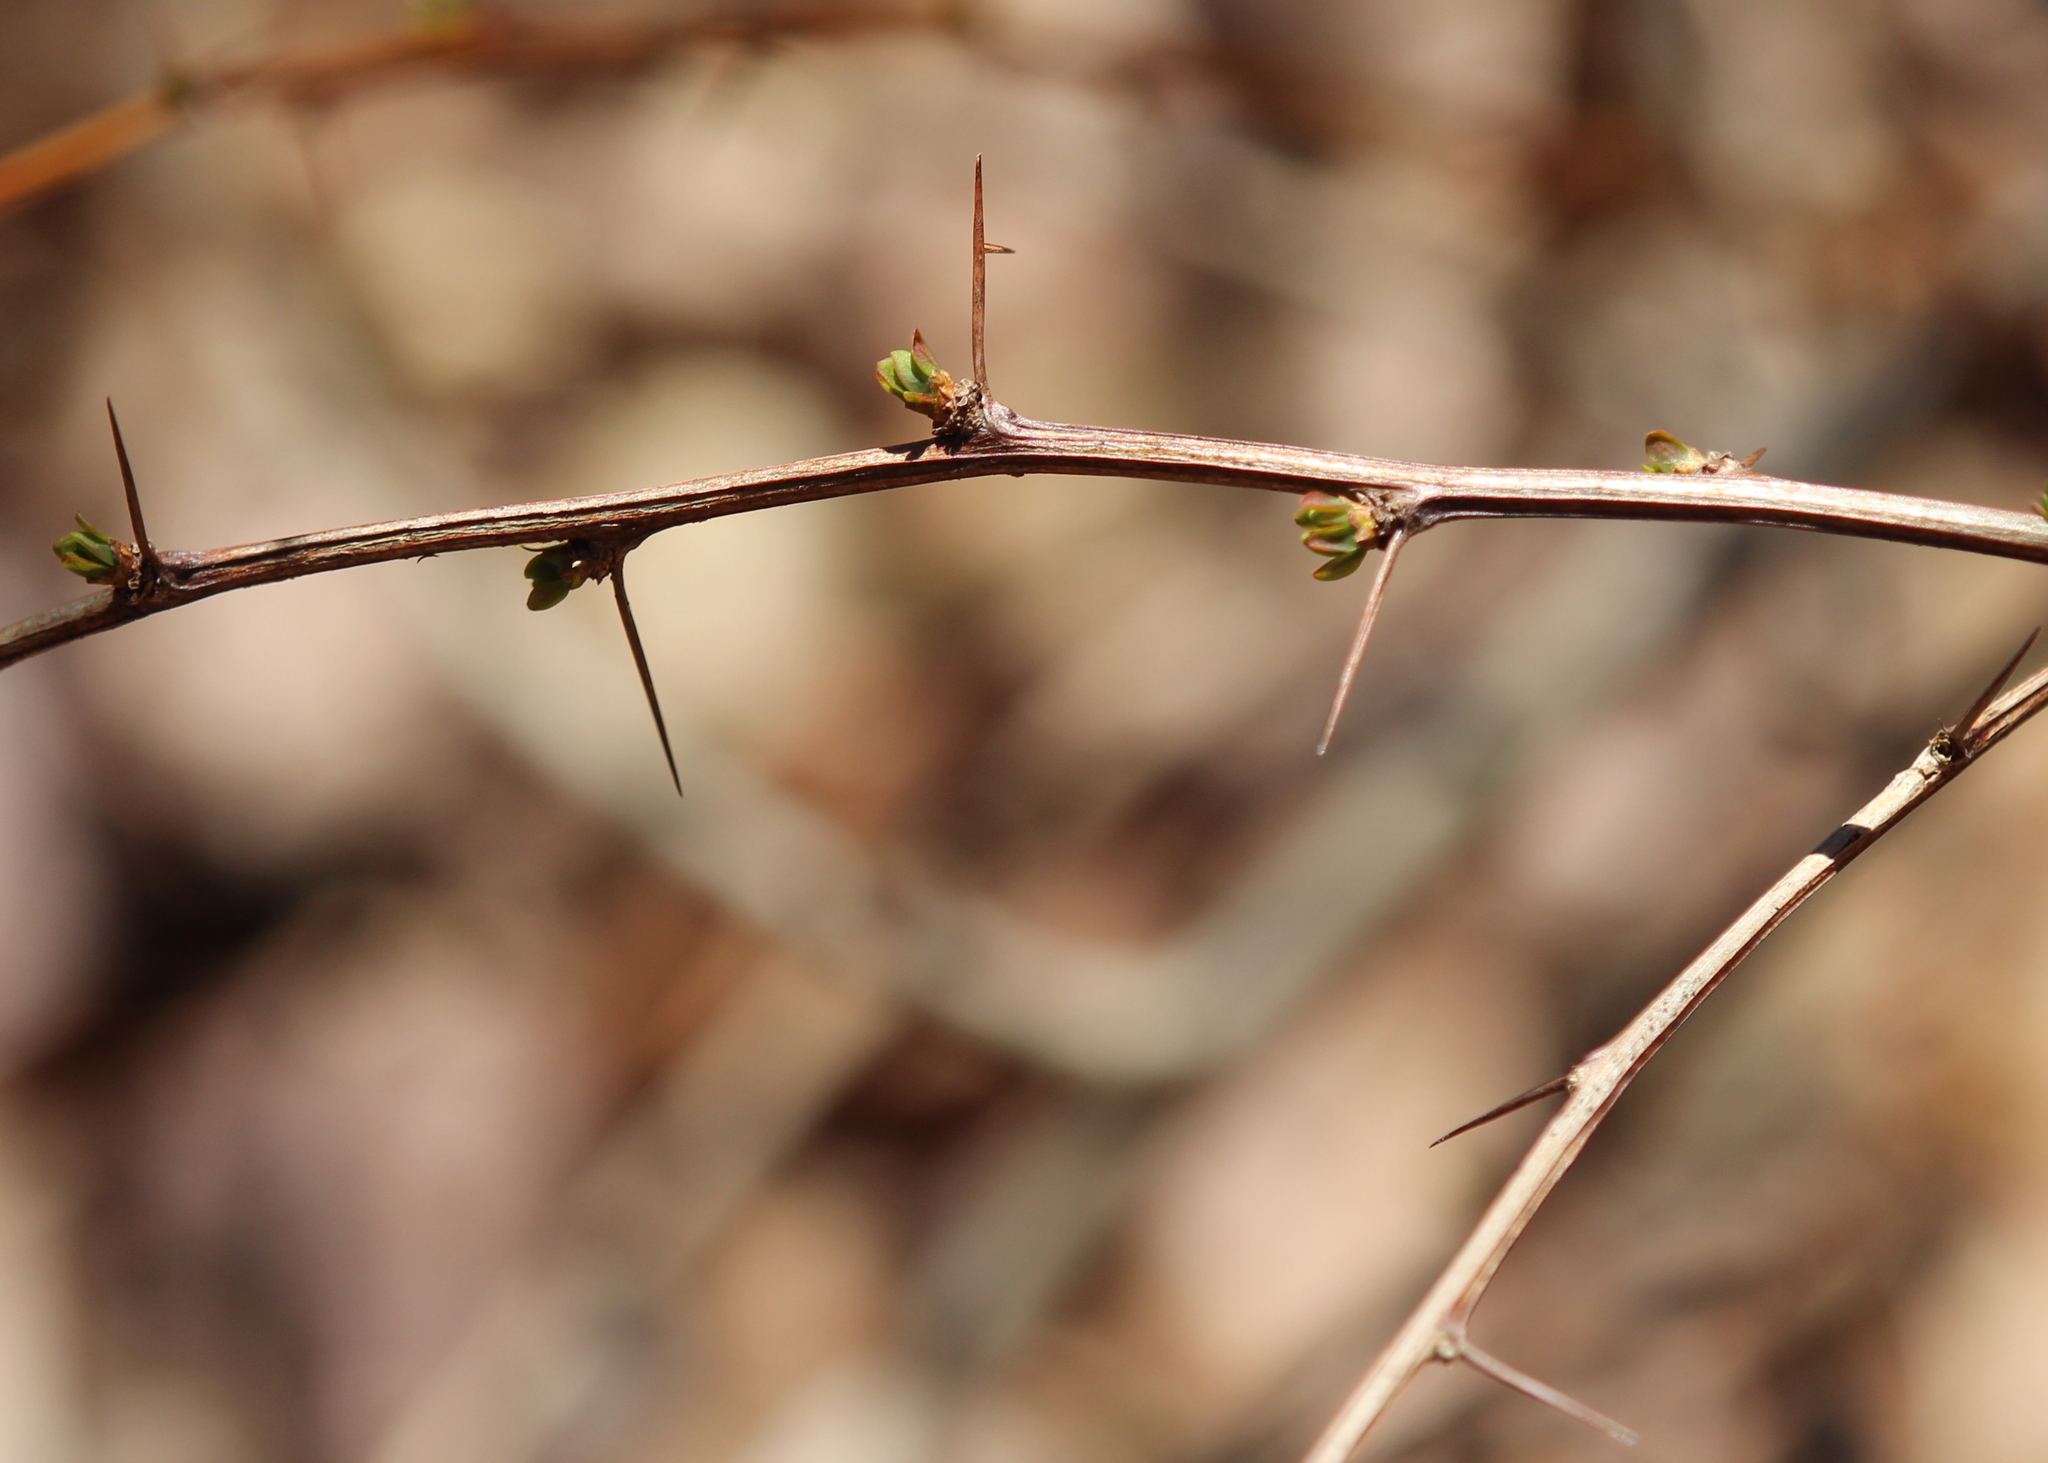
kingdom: Plantae
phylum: Tracheophyta
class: Magnoliopsida
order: Ranunculales
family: Berberidaceae
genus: Berberis
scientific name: Berberis thunbergii
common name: Japanese barberry
